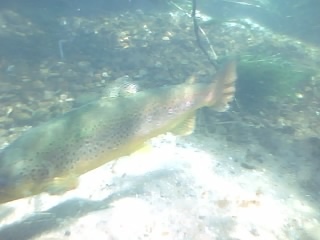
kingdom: Animalia
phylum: Chordata
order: Salmoniformes
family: Salmonidae
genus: Salmo
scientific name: Salmo trutta
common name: Brown trout
